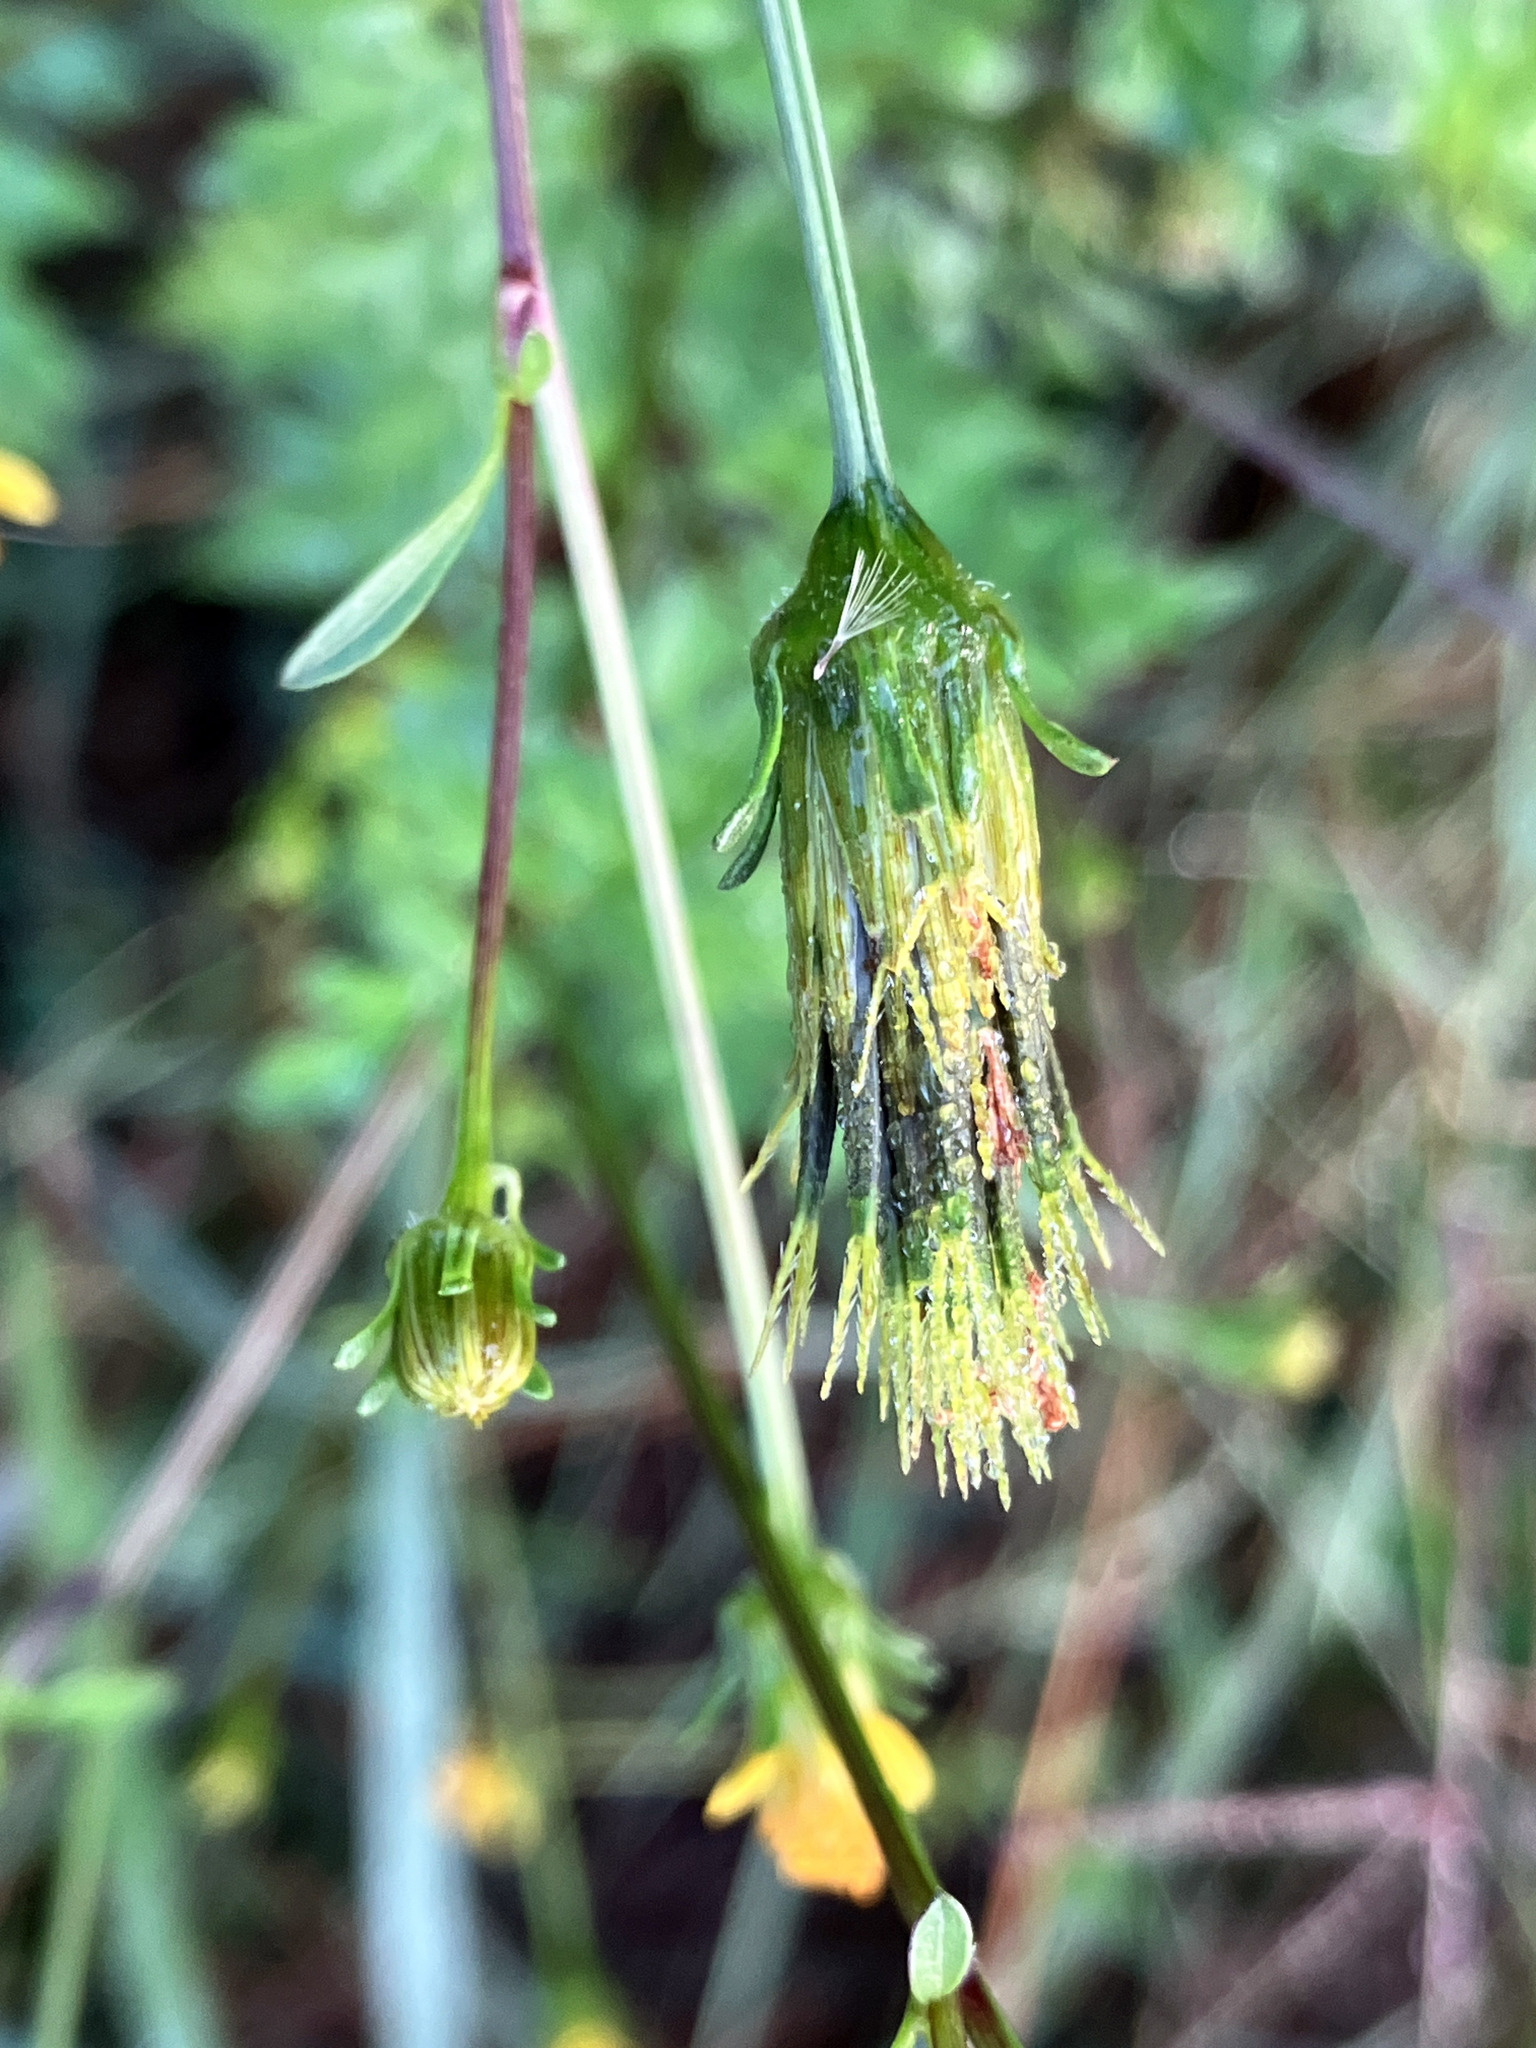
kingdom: Plantae
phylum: Tracheophyta
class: Magnoliopsida
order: Asterales
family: Asteraceae
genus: Bidens
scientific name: Bidens bipinnata
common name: Spanish-needles
